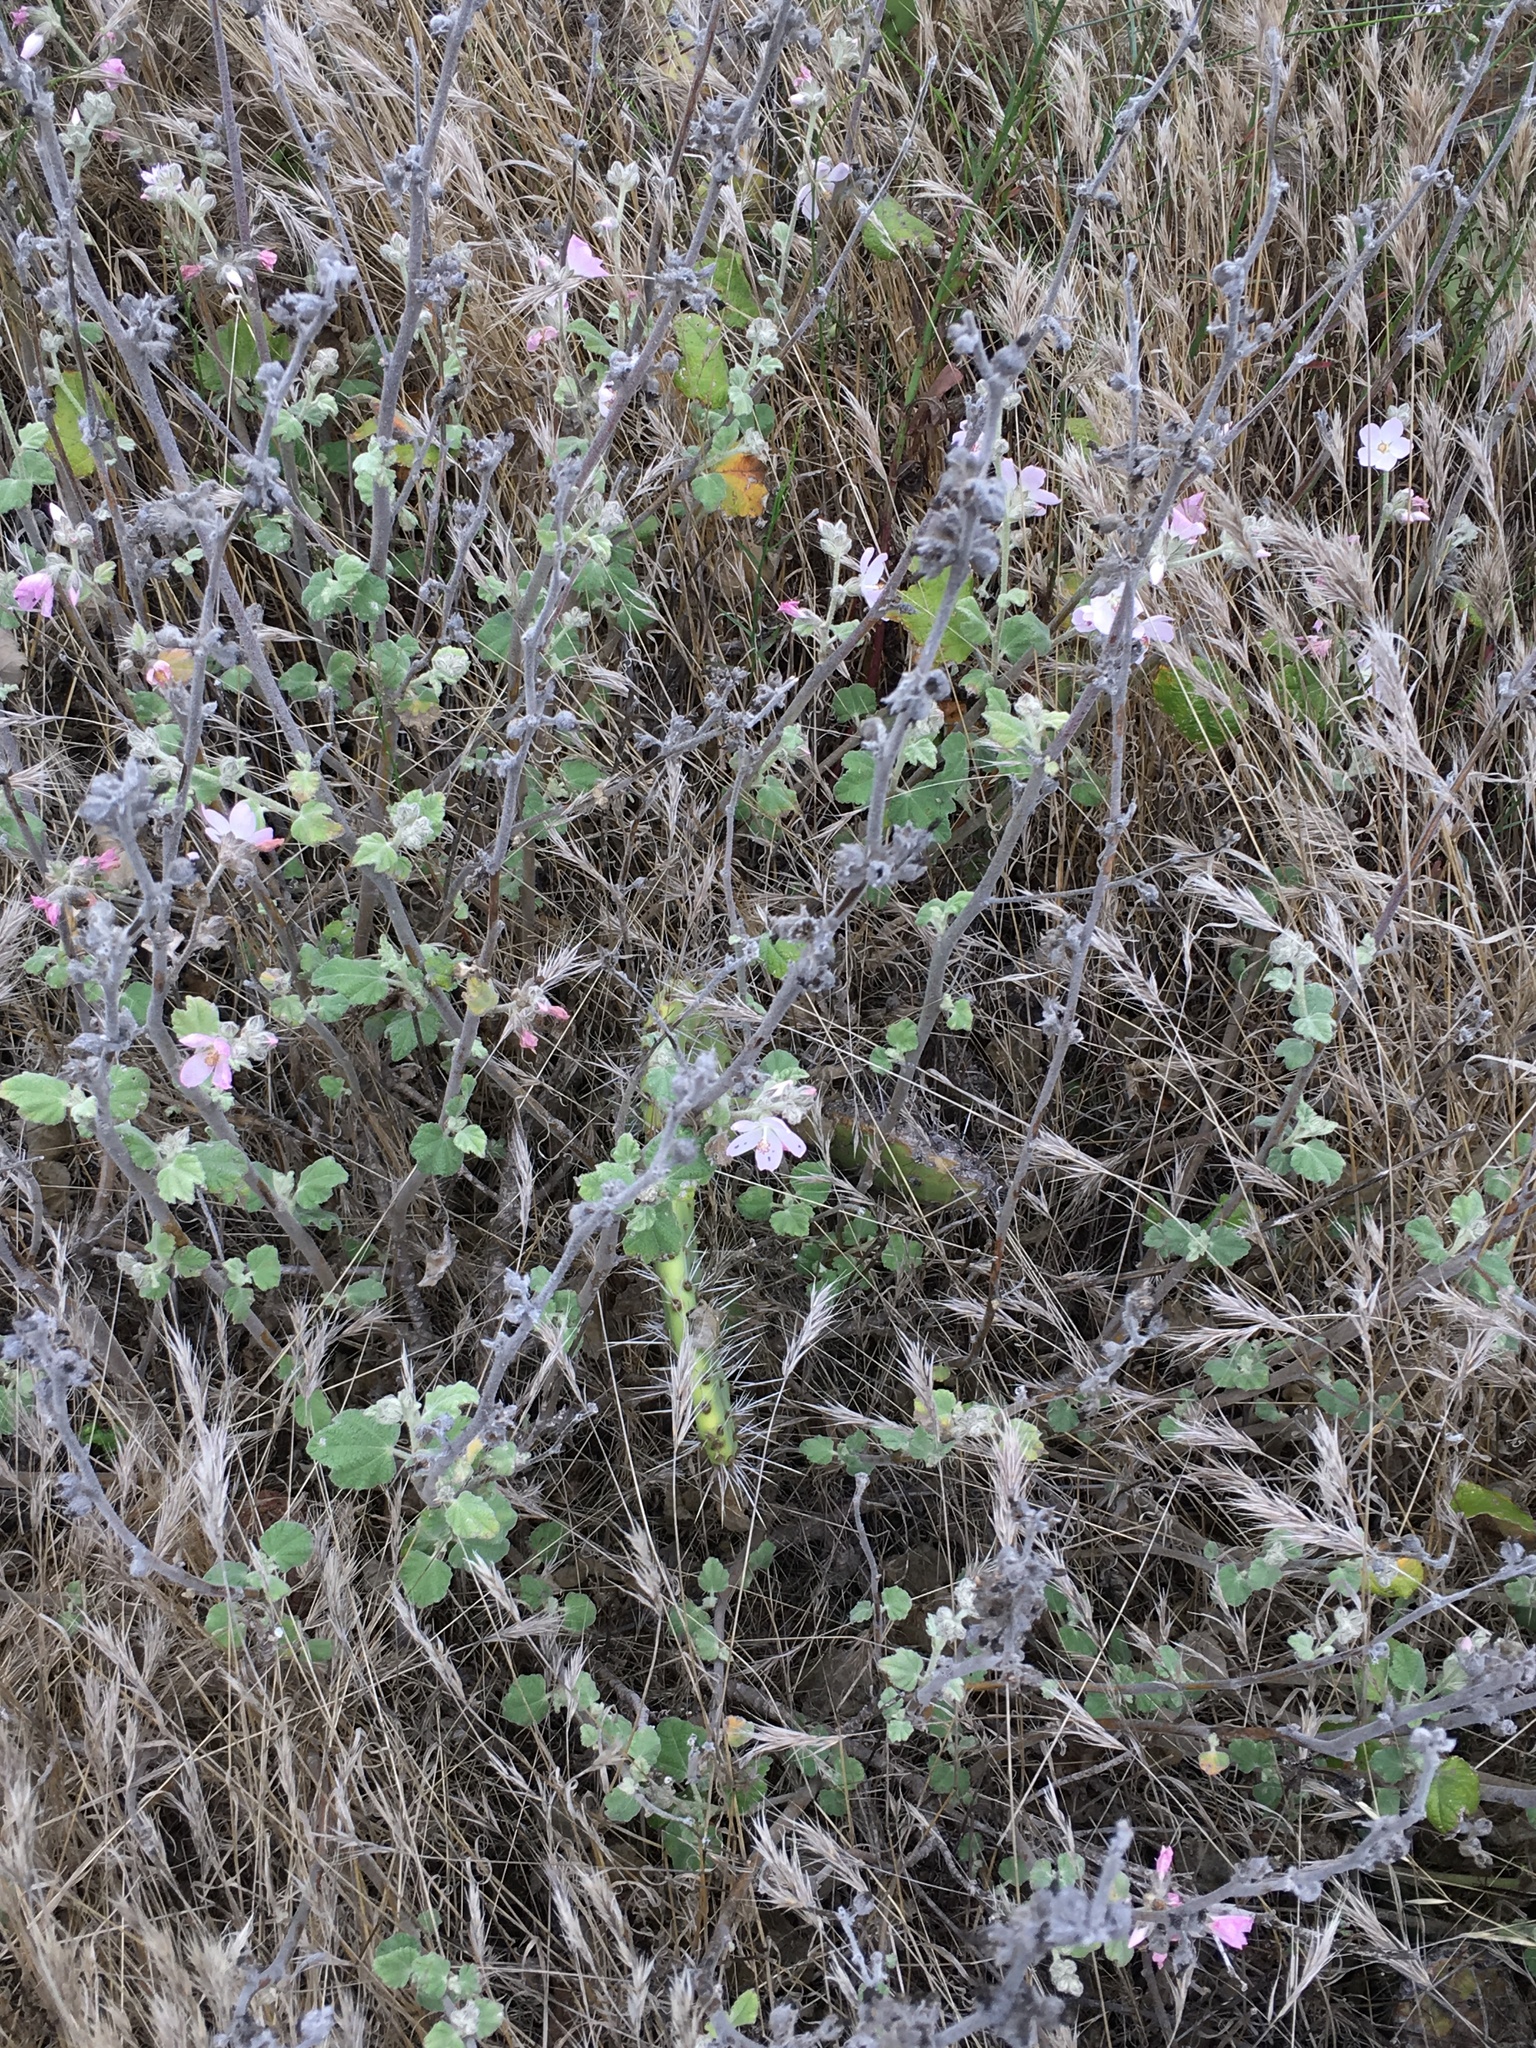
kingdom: Plantae
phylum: Tracheophyta
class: Magnoliopsida
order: Malvales
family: Malvaceae
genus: Malacothamnus
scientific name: Malacothamnus clementinus
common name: San clemente island bush-mallow
